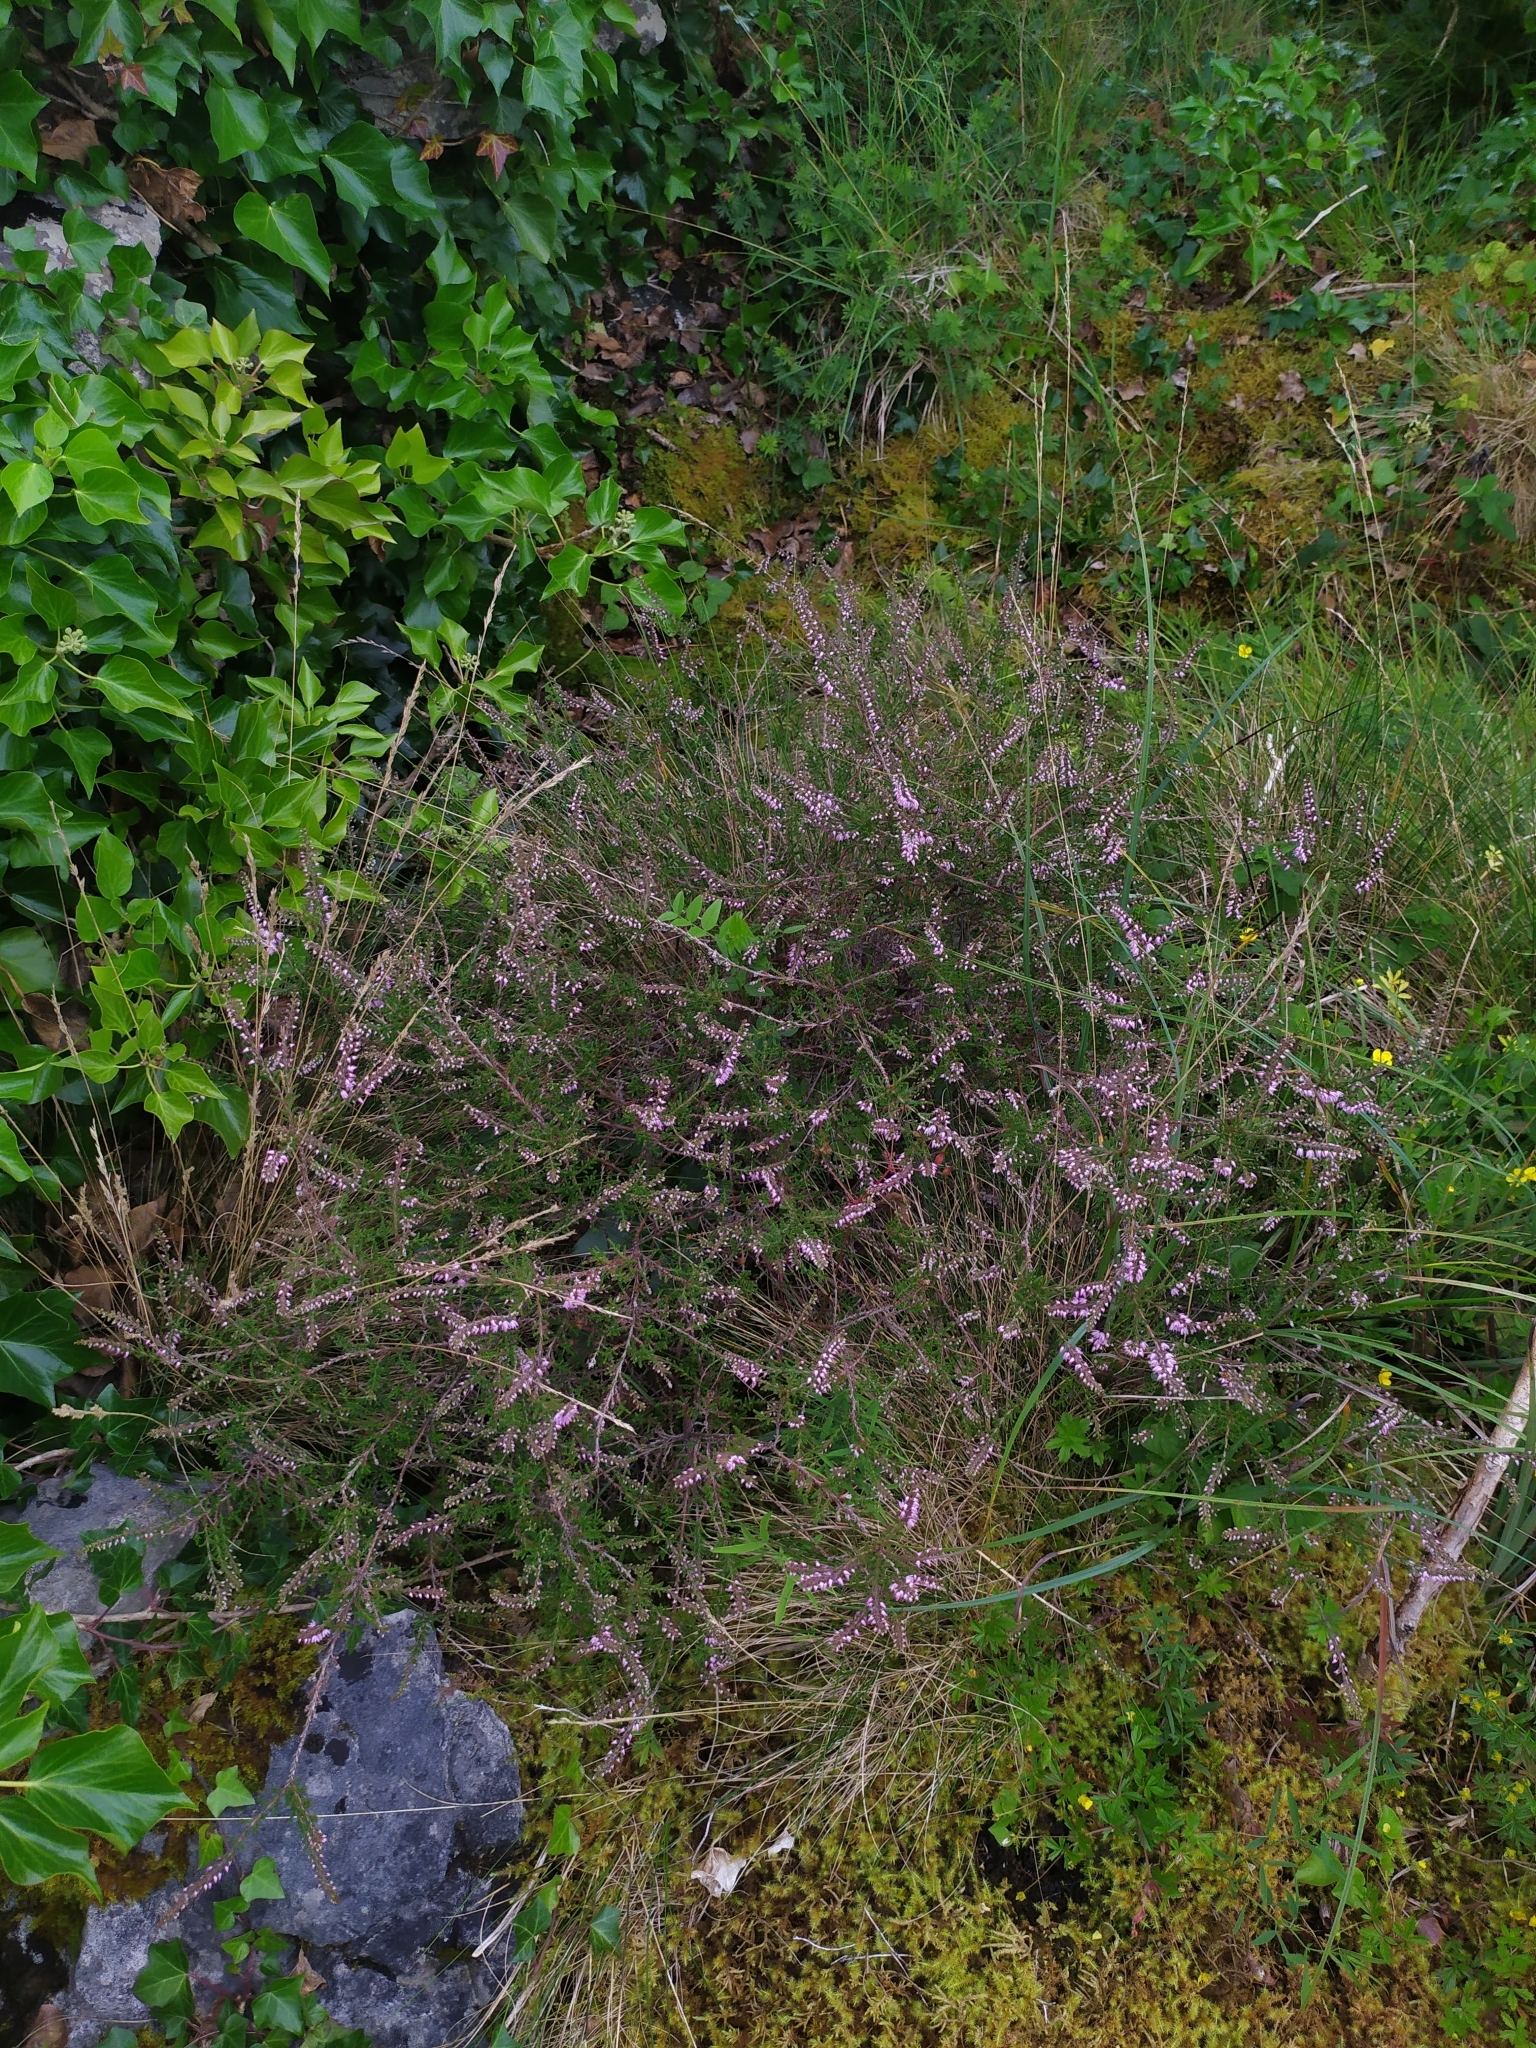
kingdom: Plantae
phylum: Tracheophyta
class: Magnoliopsida
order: Ericales
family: Ericaceae
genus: Calluna
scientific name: Calluna vulgaris
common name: Heather
